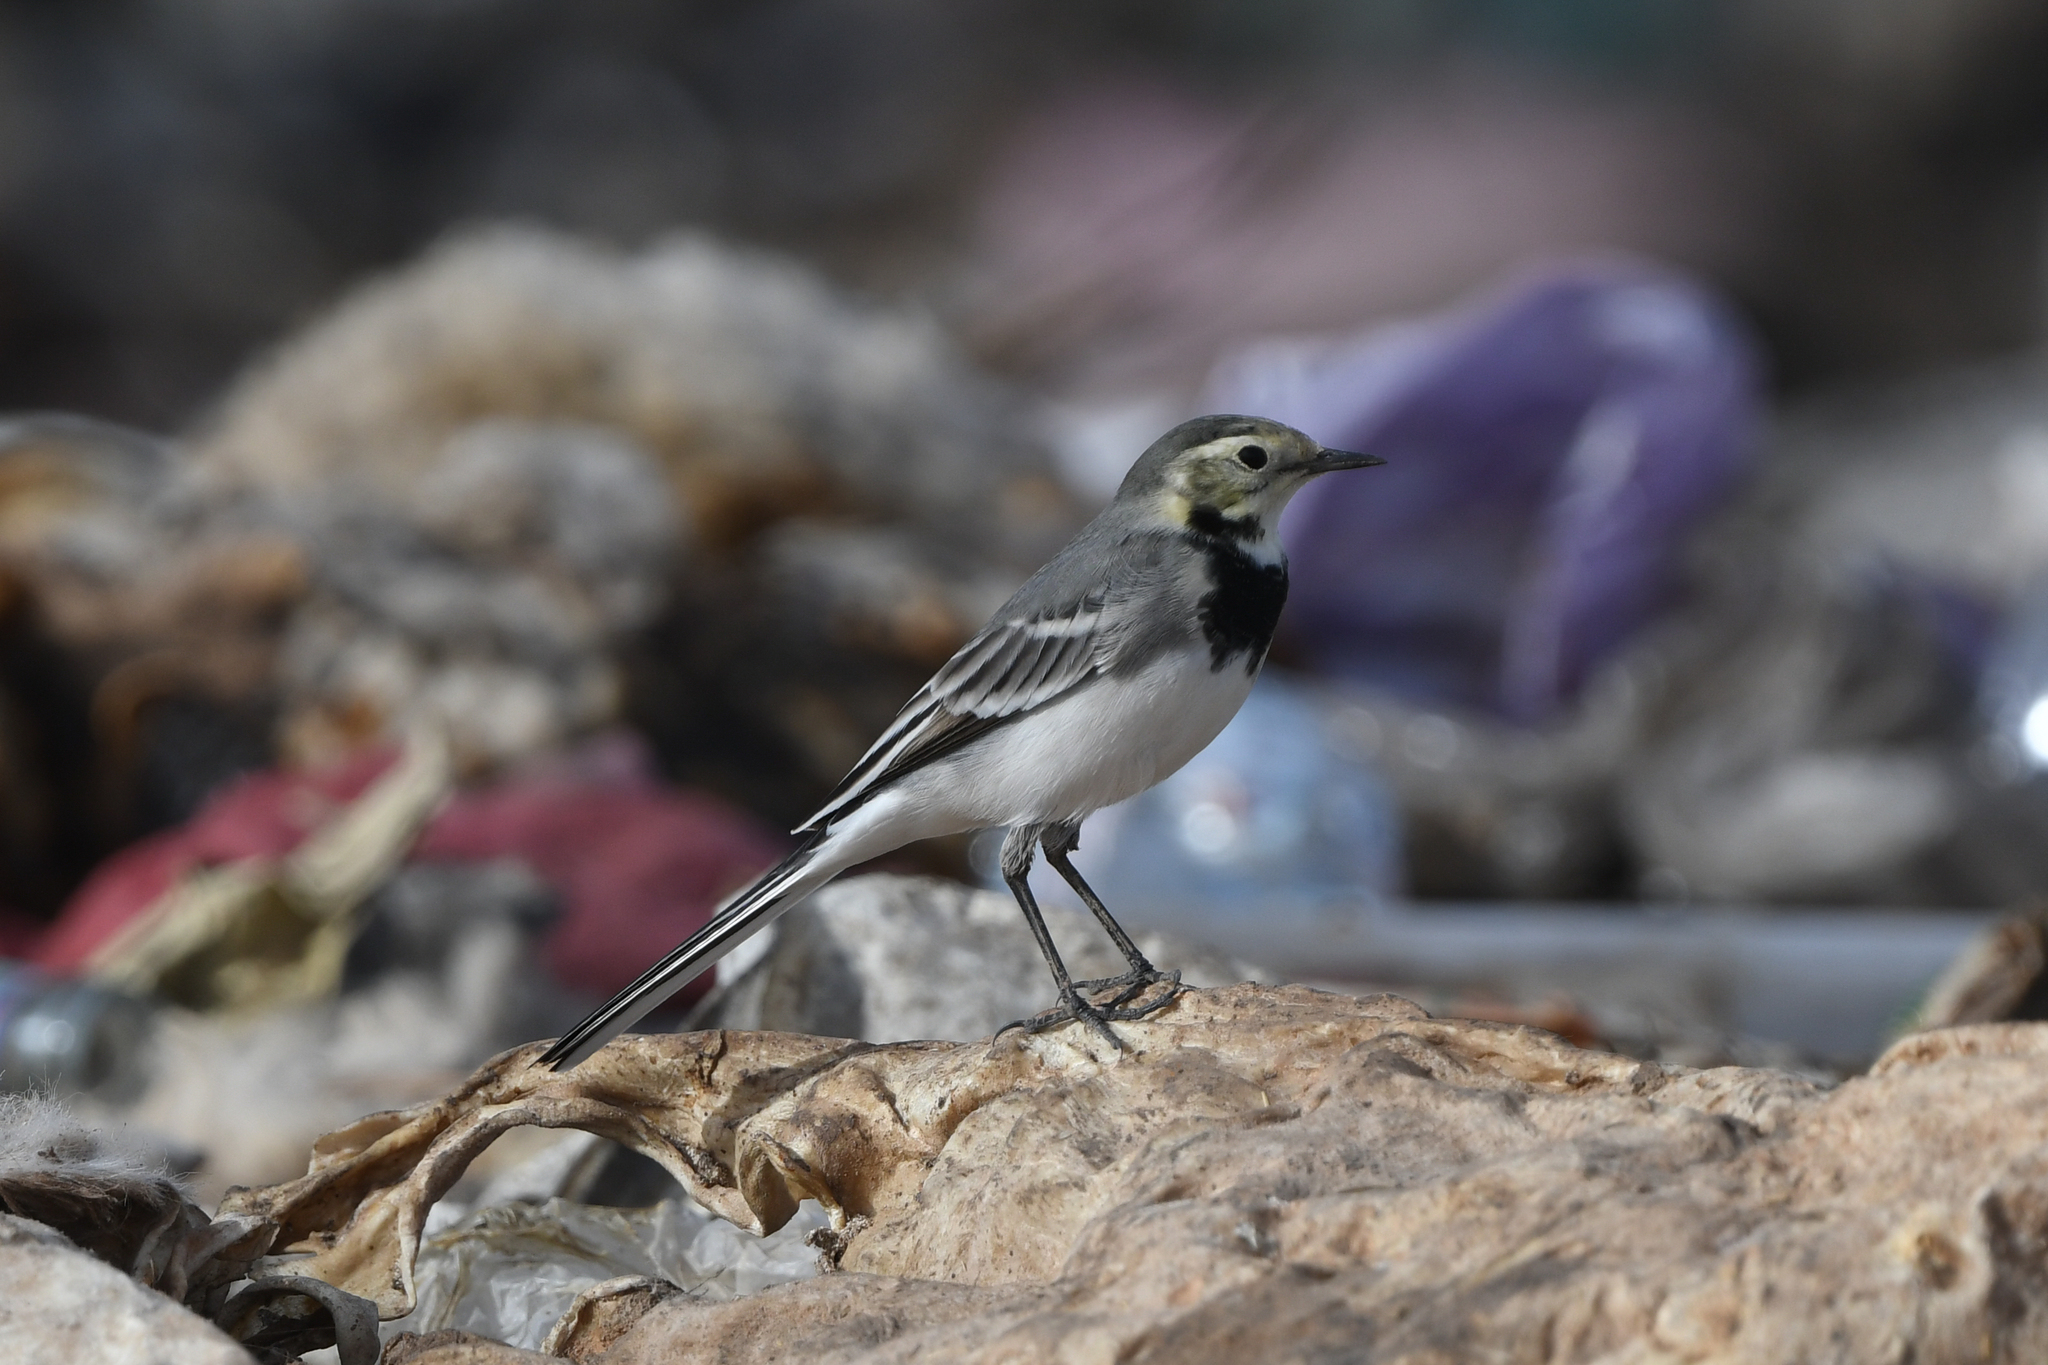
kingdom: Animalia
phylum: Chordata
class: Aves
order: Passeriformes
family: Motacillidae
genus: Motacilla
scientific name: Motacilla alba
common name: White wagtail
